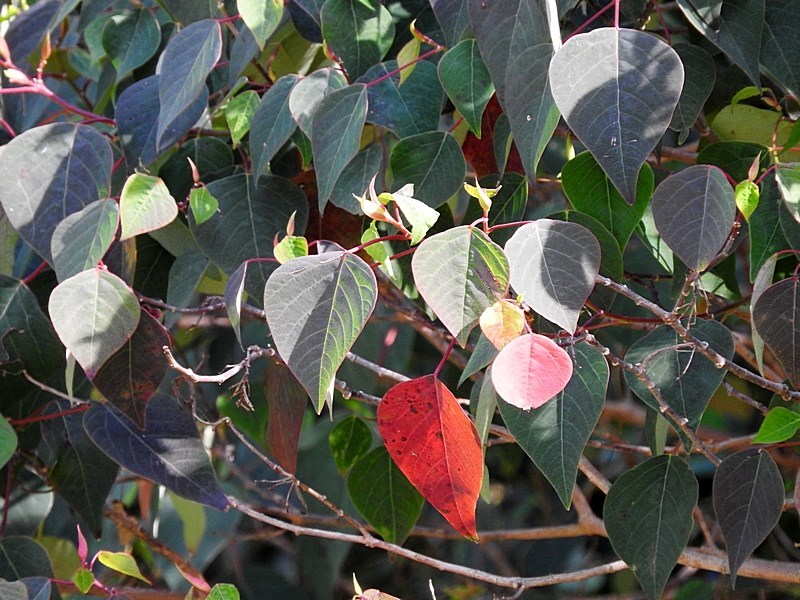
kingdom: Plantae
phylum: Tracheophyta
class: Magnoliopsida
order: Malpighiales
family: Euphorbiaceae
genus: Homalanthus
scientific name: Homalanthus populifolius
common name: Queensland poplar
